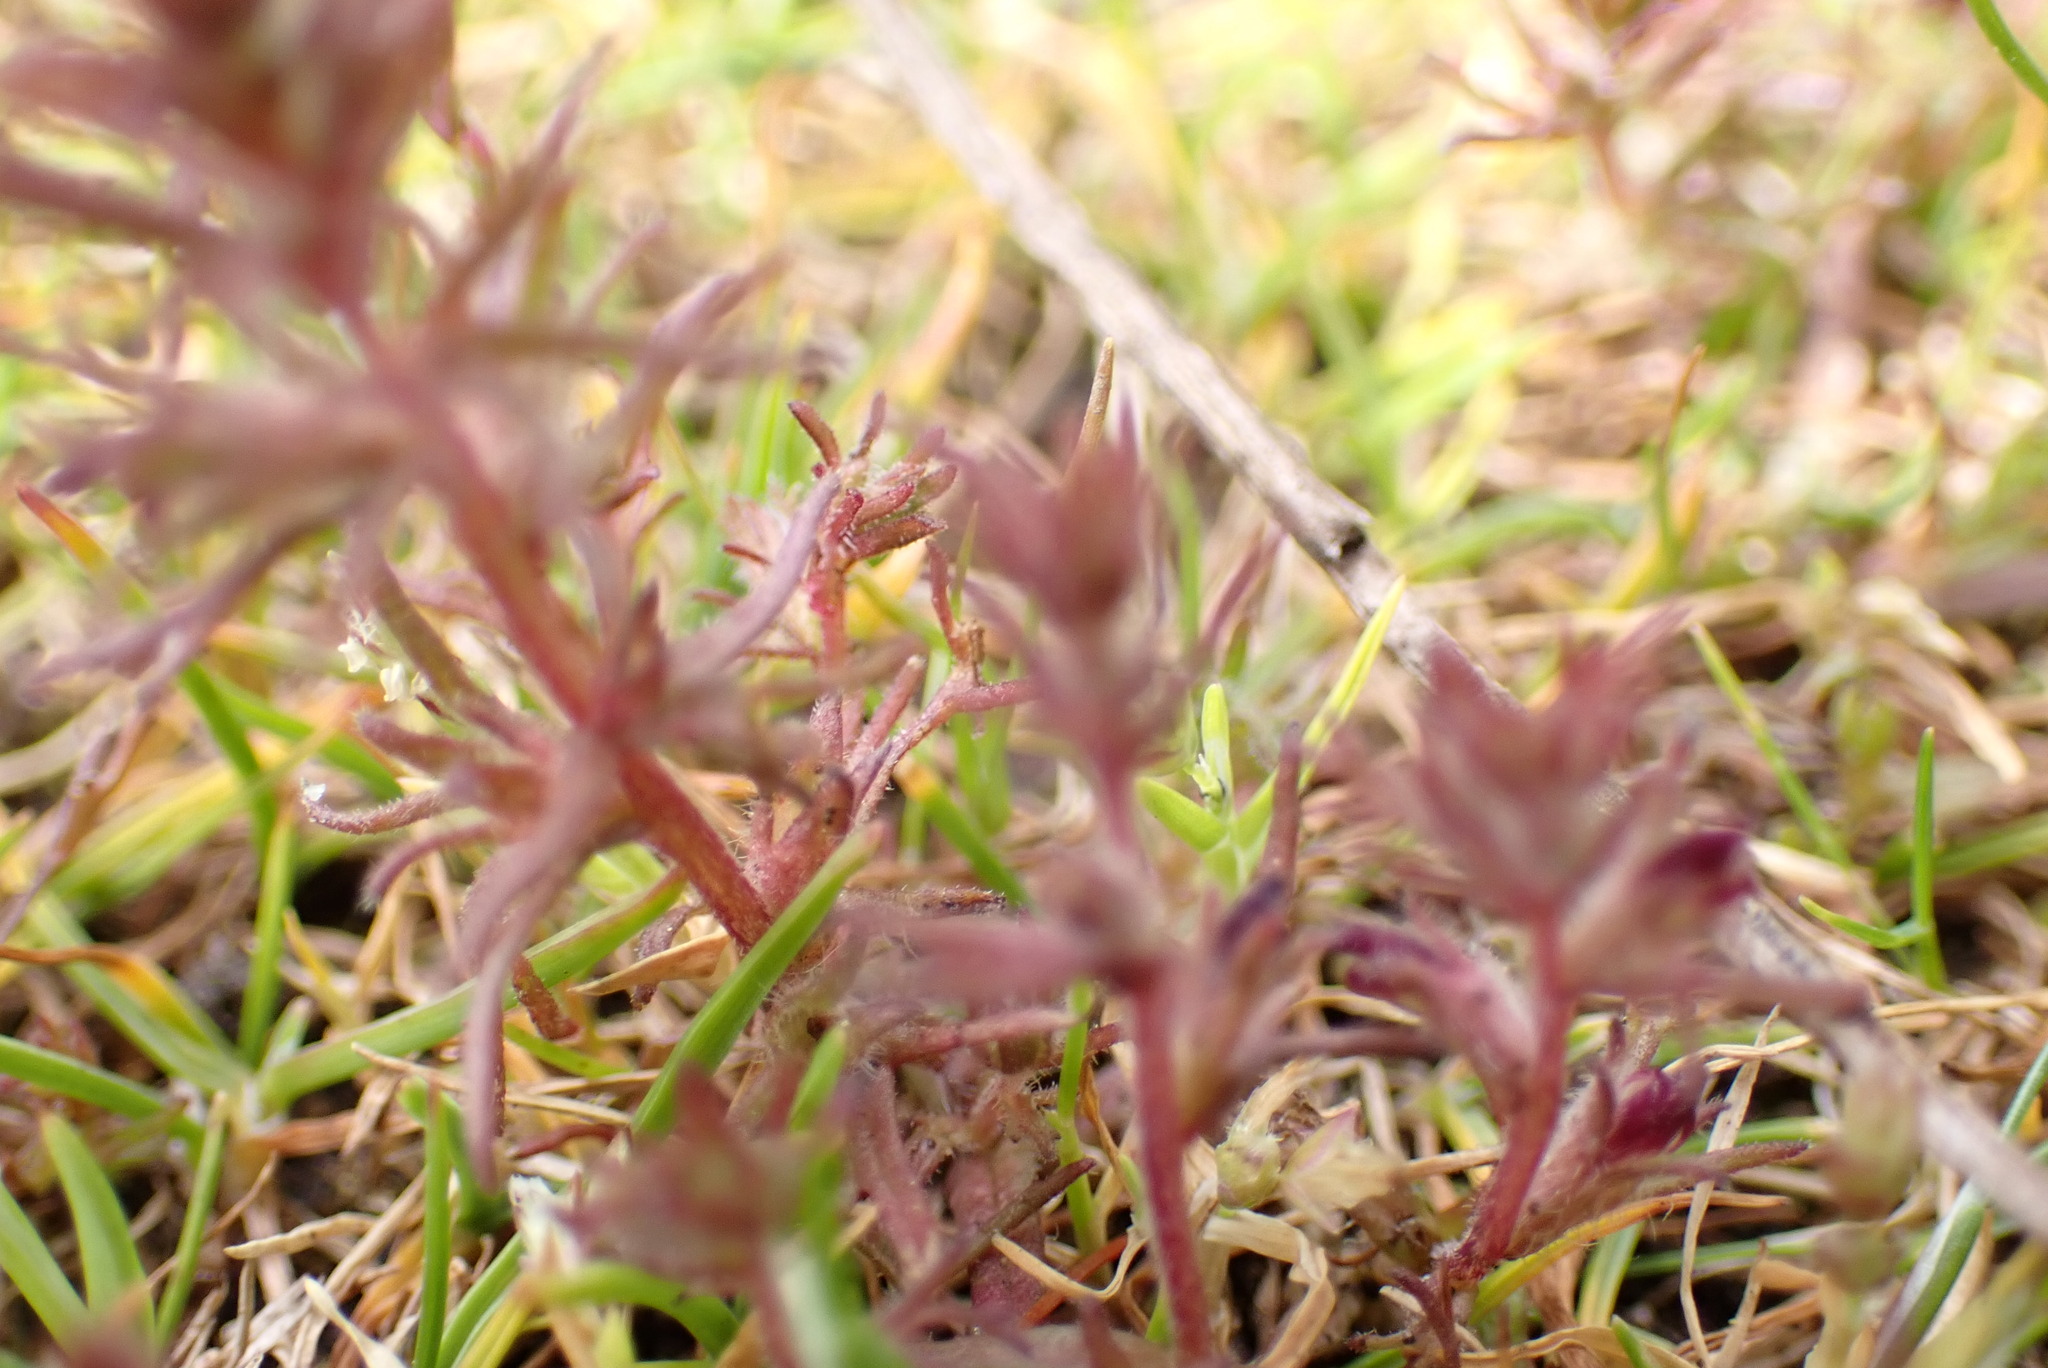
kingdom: Plantae
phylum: Tracheophyta
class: Magnoliopsida
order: Lamiales
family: Orobanchaceae
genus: Triphysaria
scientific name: Triphysaria pusilla
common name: Dwarf false owl-clover
